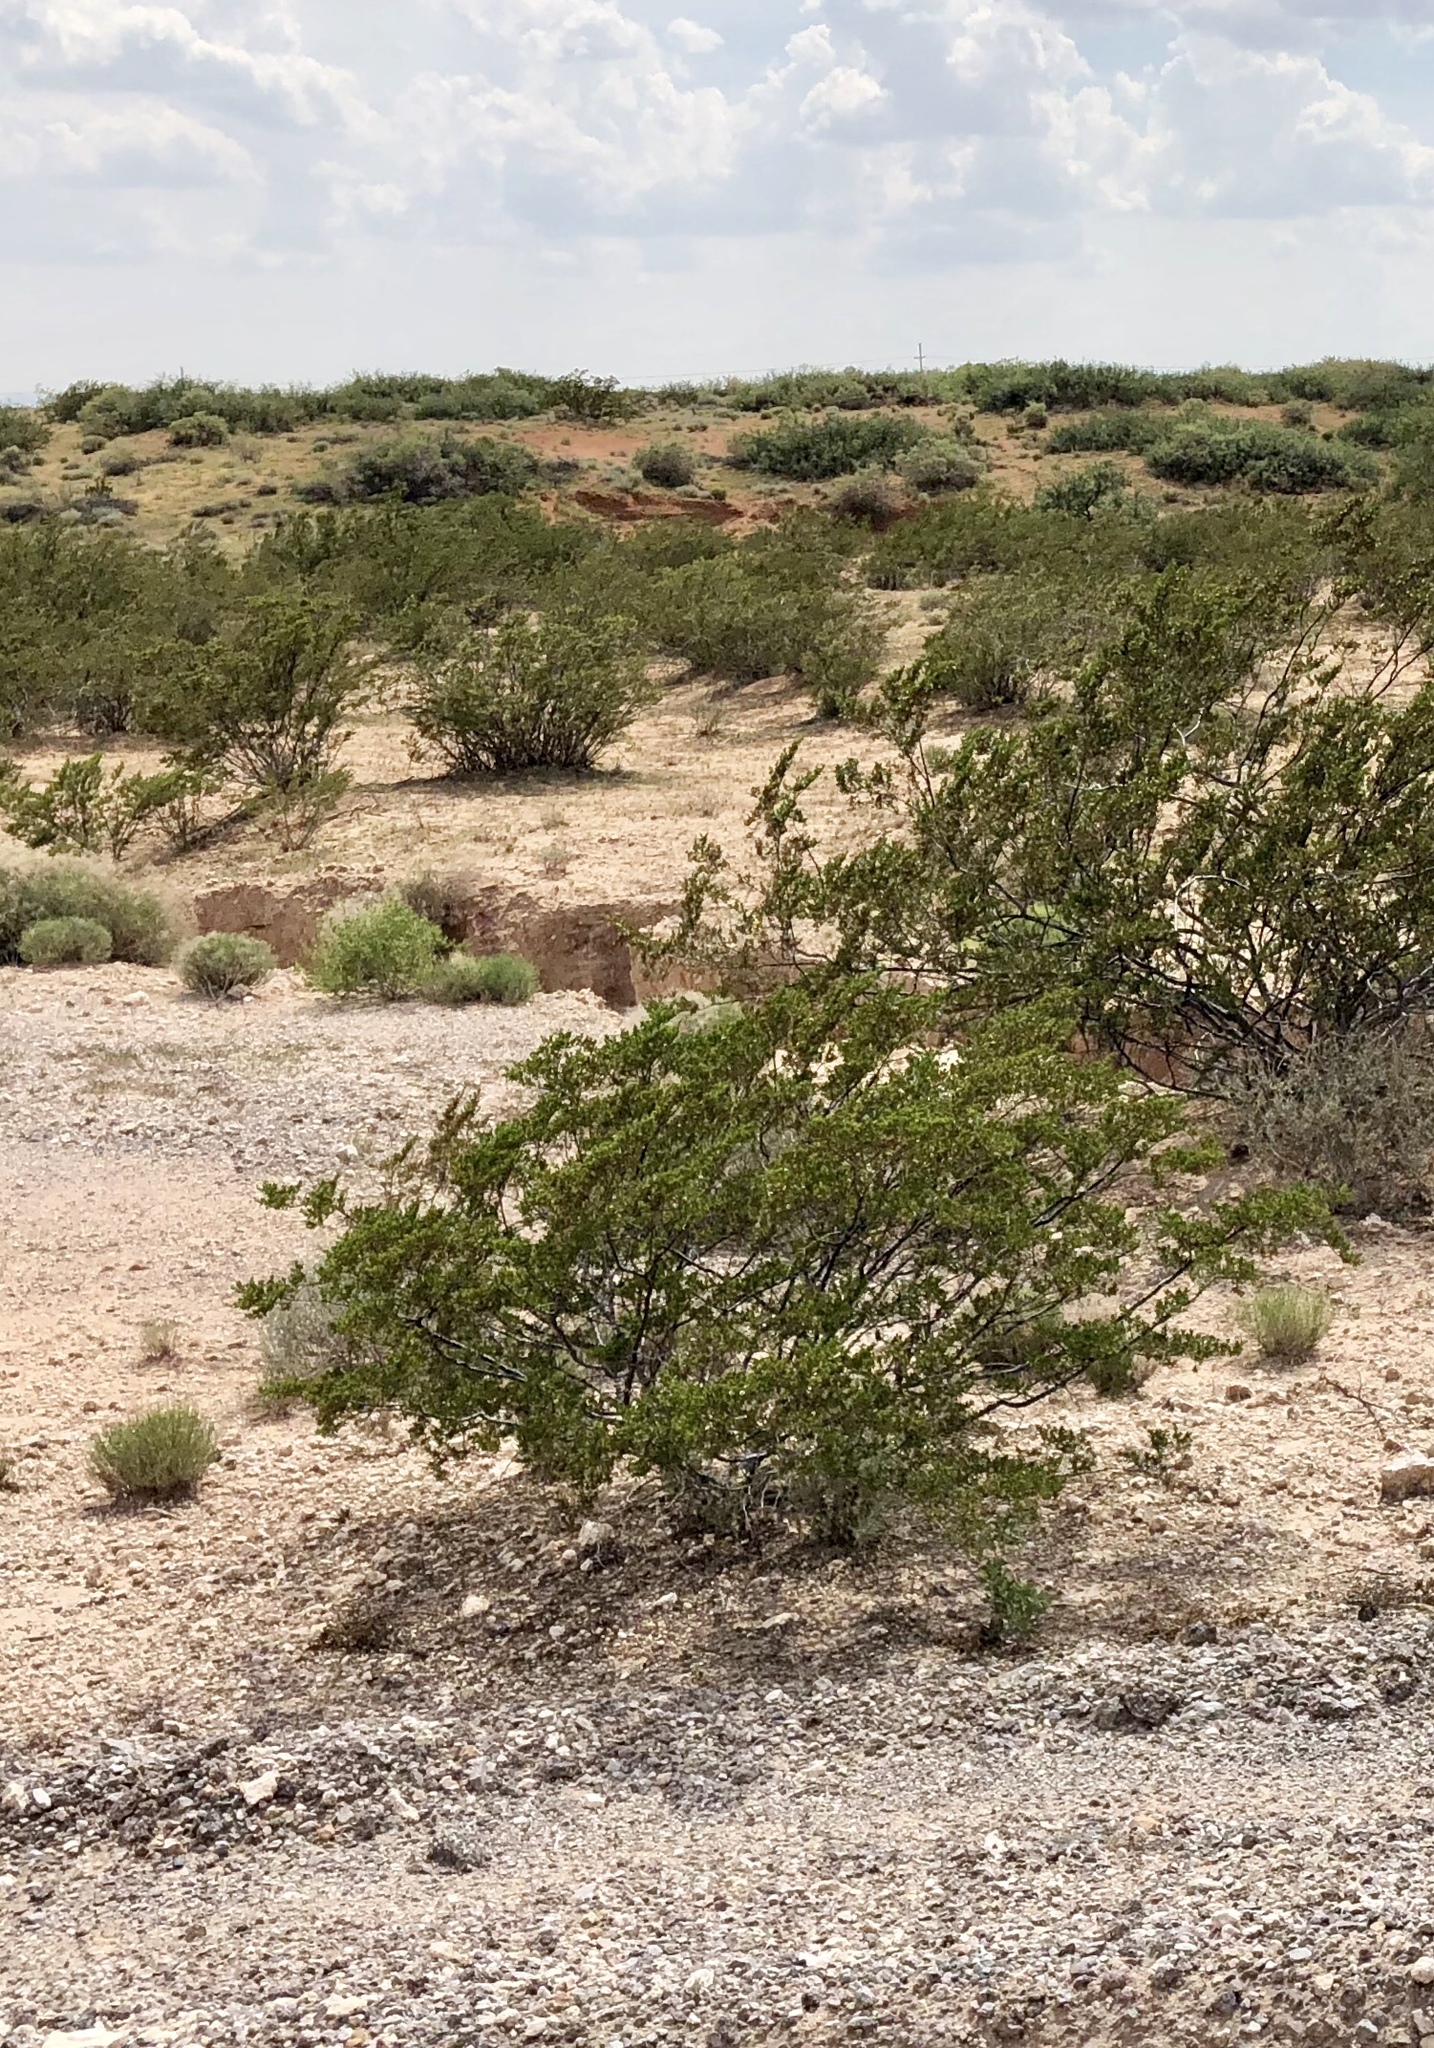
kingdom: Plantae
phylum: Tracheophyta
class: Magnoliopsida
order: Zygophyllales
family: Zygophyllaceae
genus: Larrea
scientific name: Larrea tridentata
